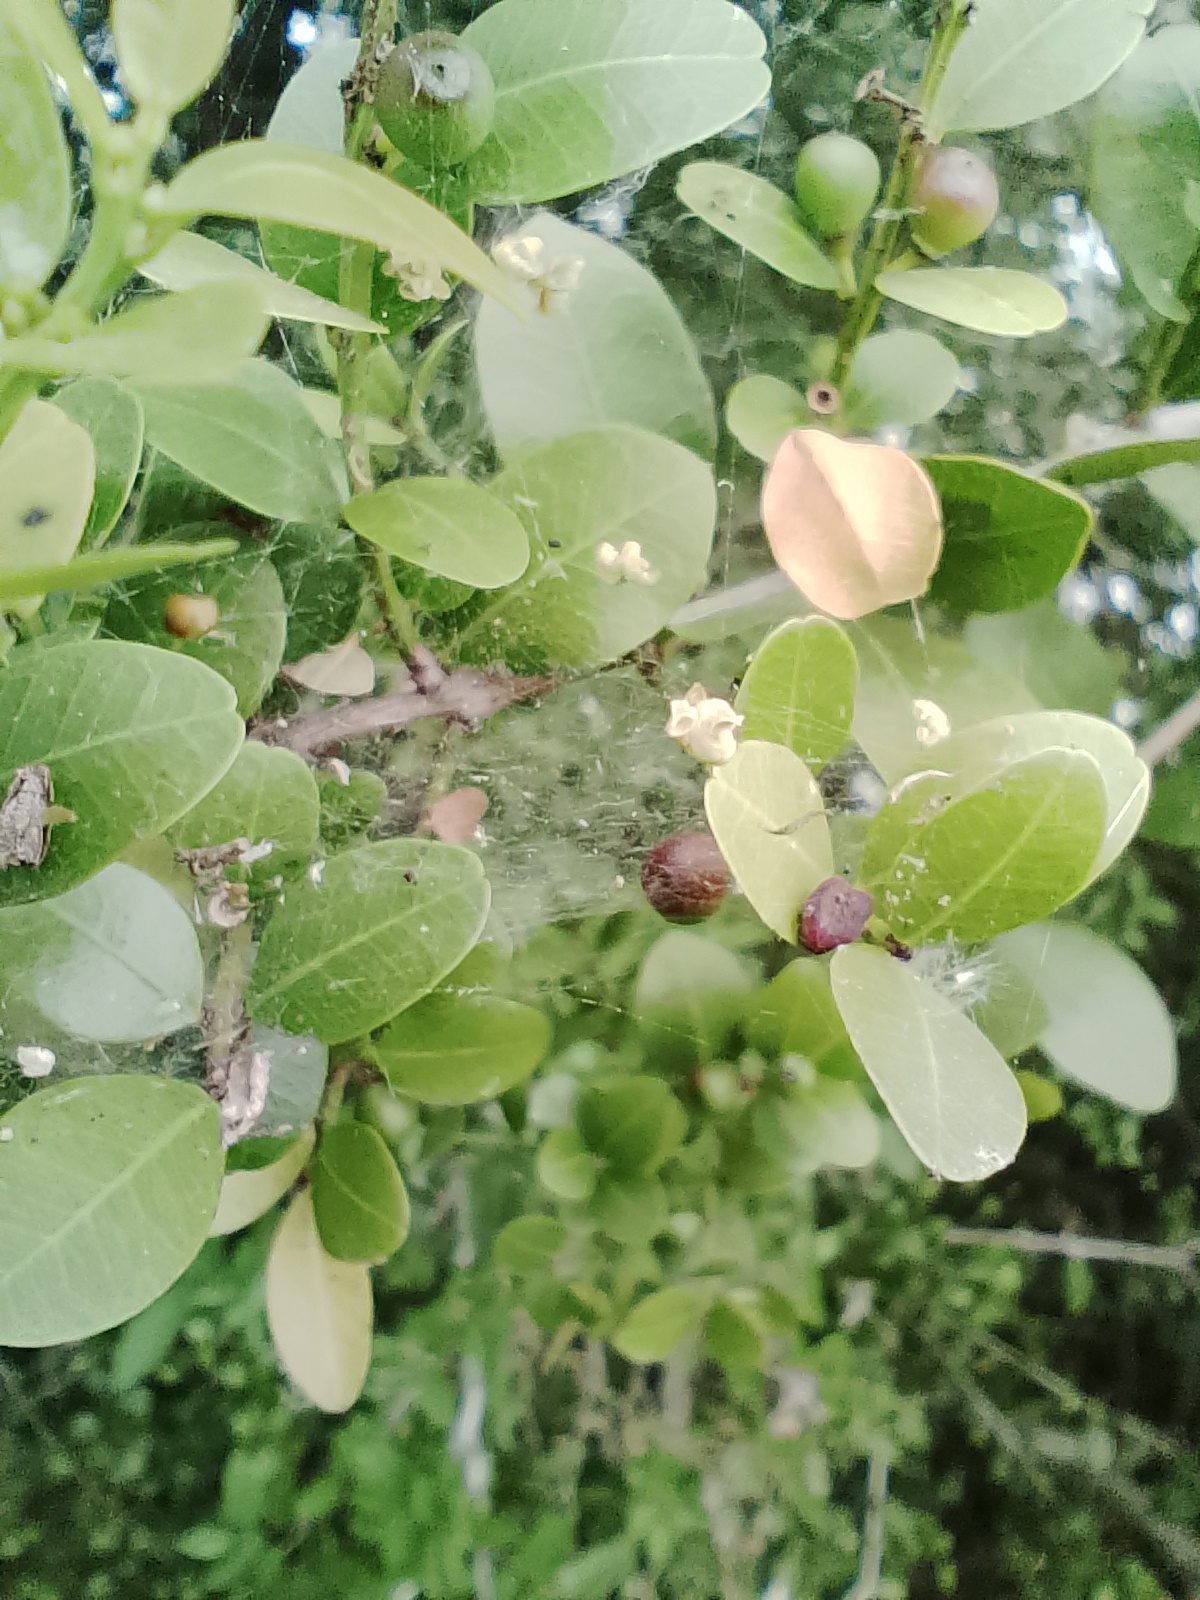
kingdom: Plantae
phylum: Tracheophyta
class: Magnoliopsida
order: Rosales
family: Rhamnaceae
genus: Scutia
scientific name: Scutia buxifolia
